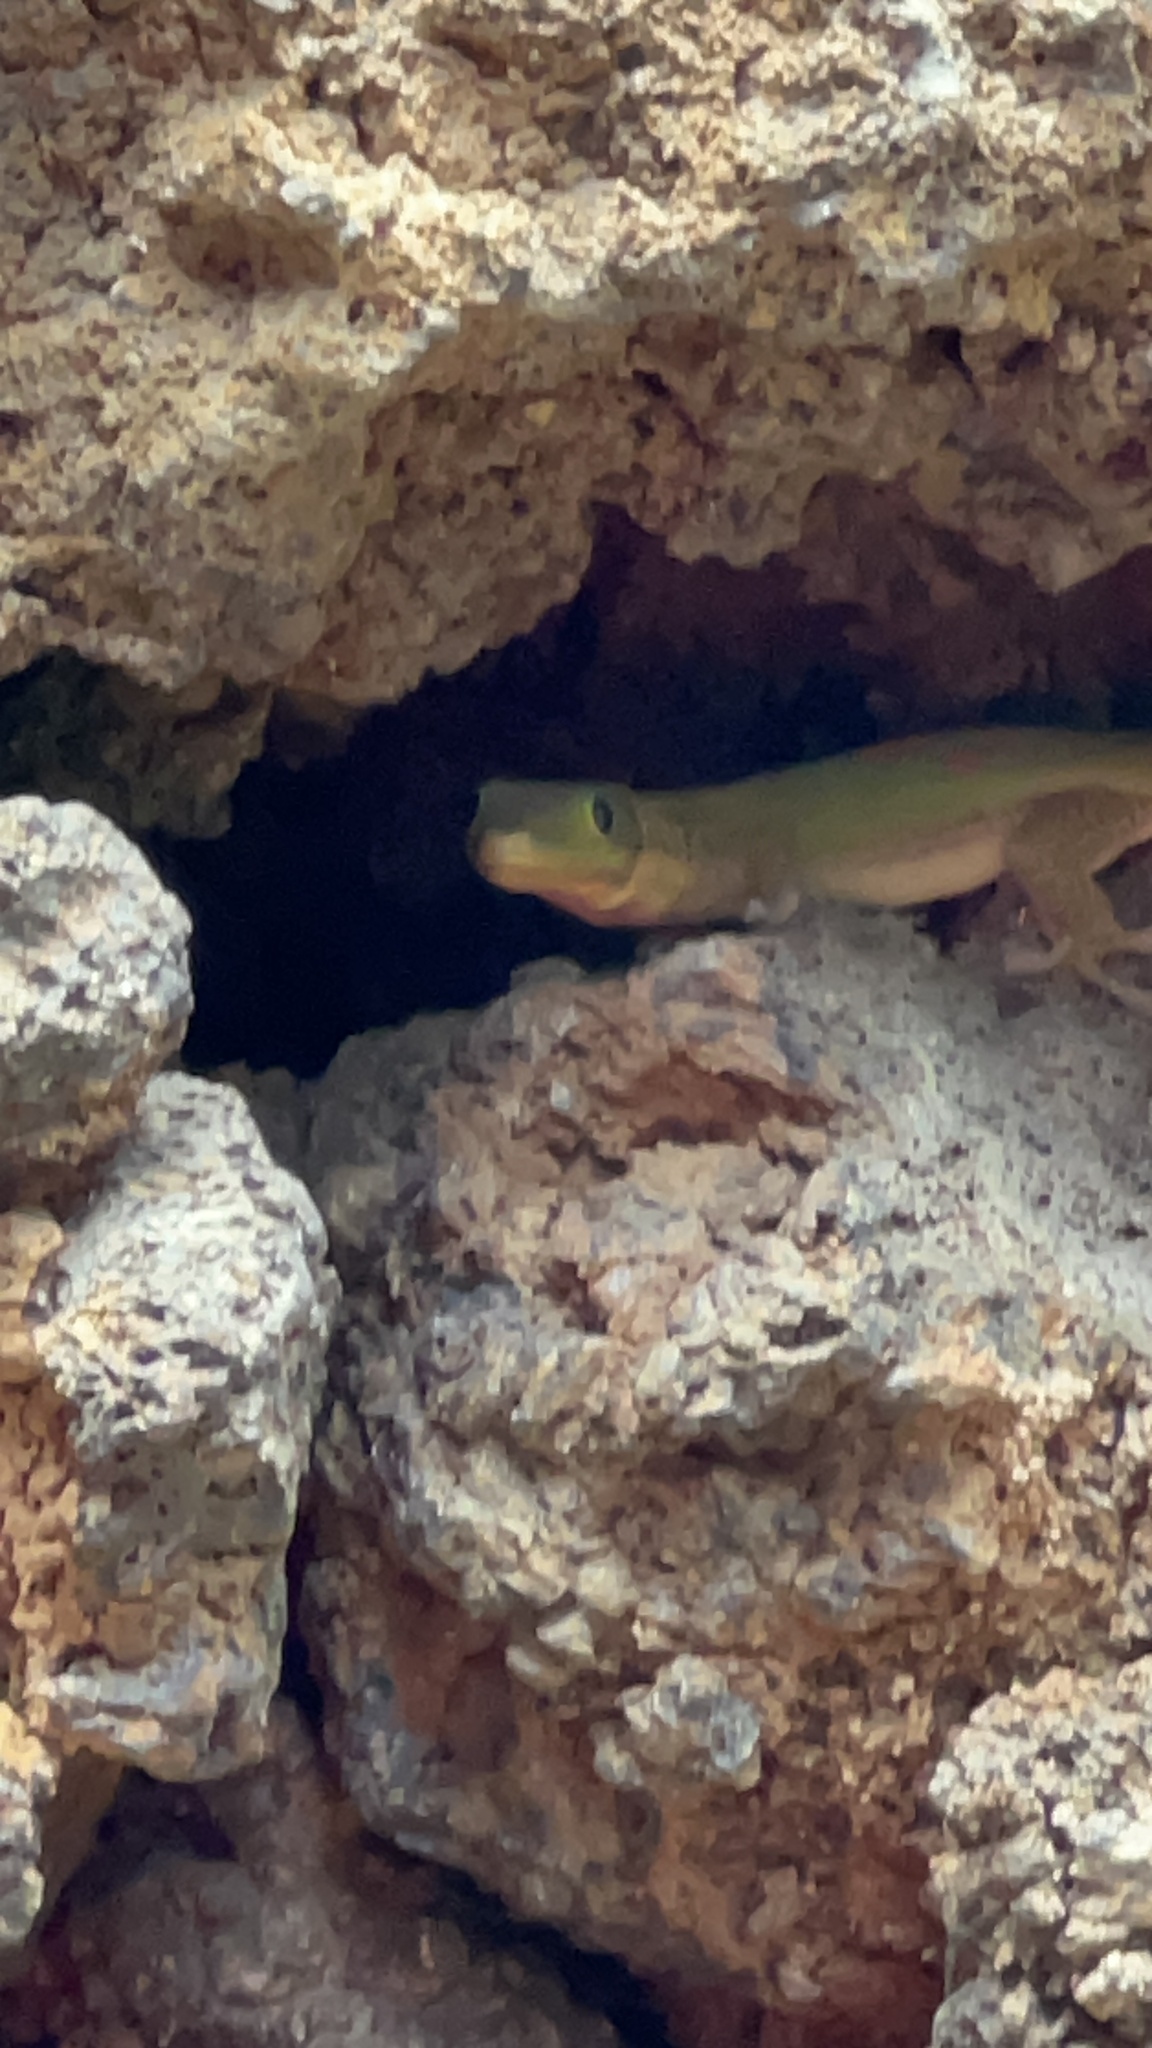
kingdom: Animalia
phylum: Chordata
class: Squamata
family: Gekkonidae
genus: Phelsuma
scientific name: Phelsuma laticauda
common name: Gold dust day gecko
